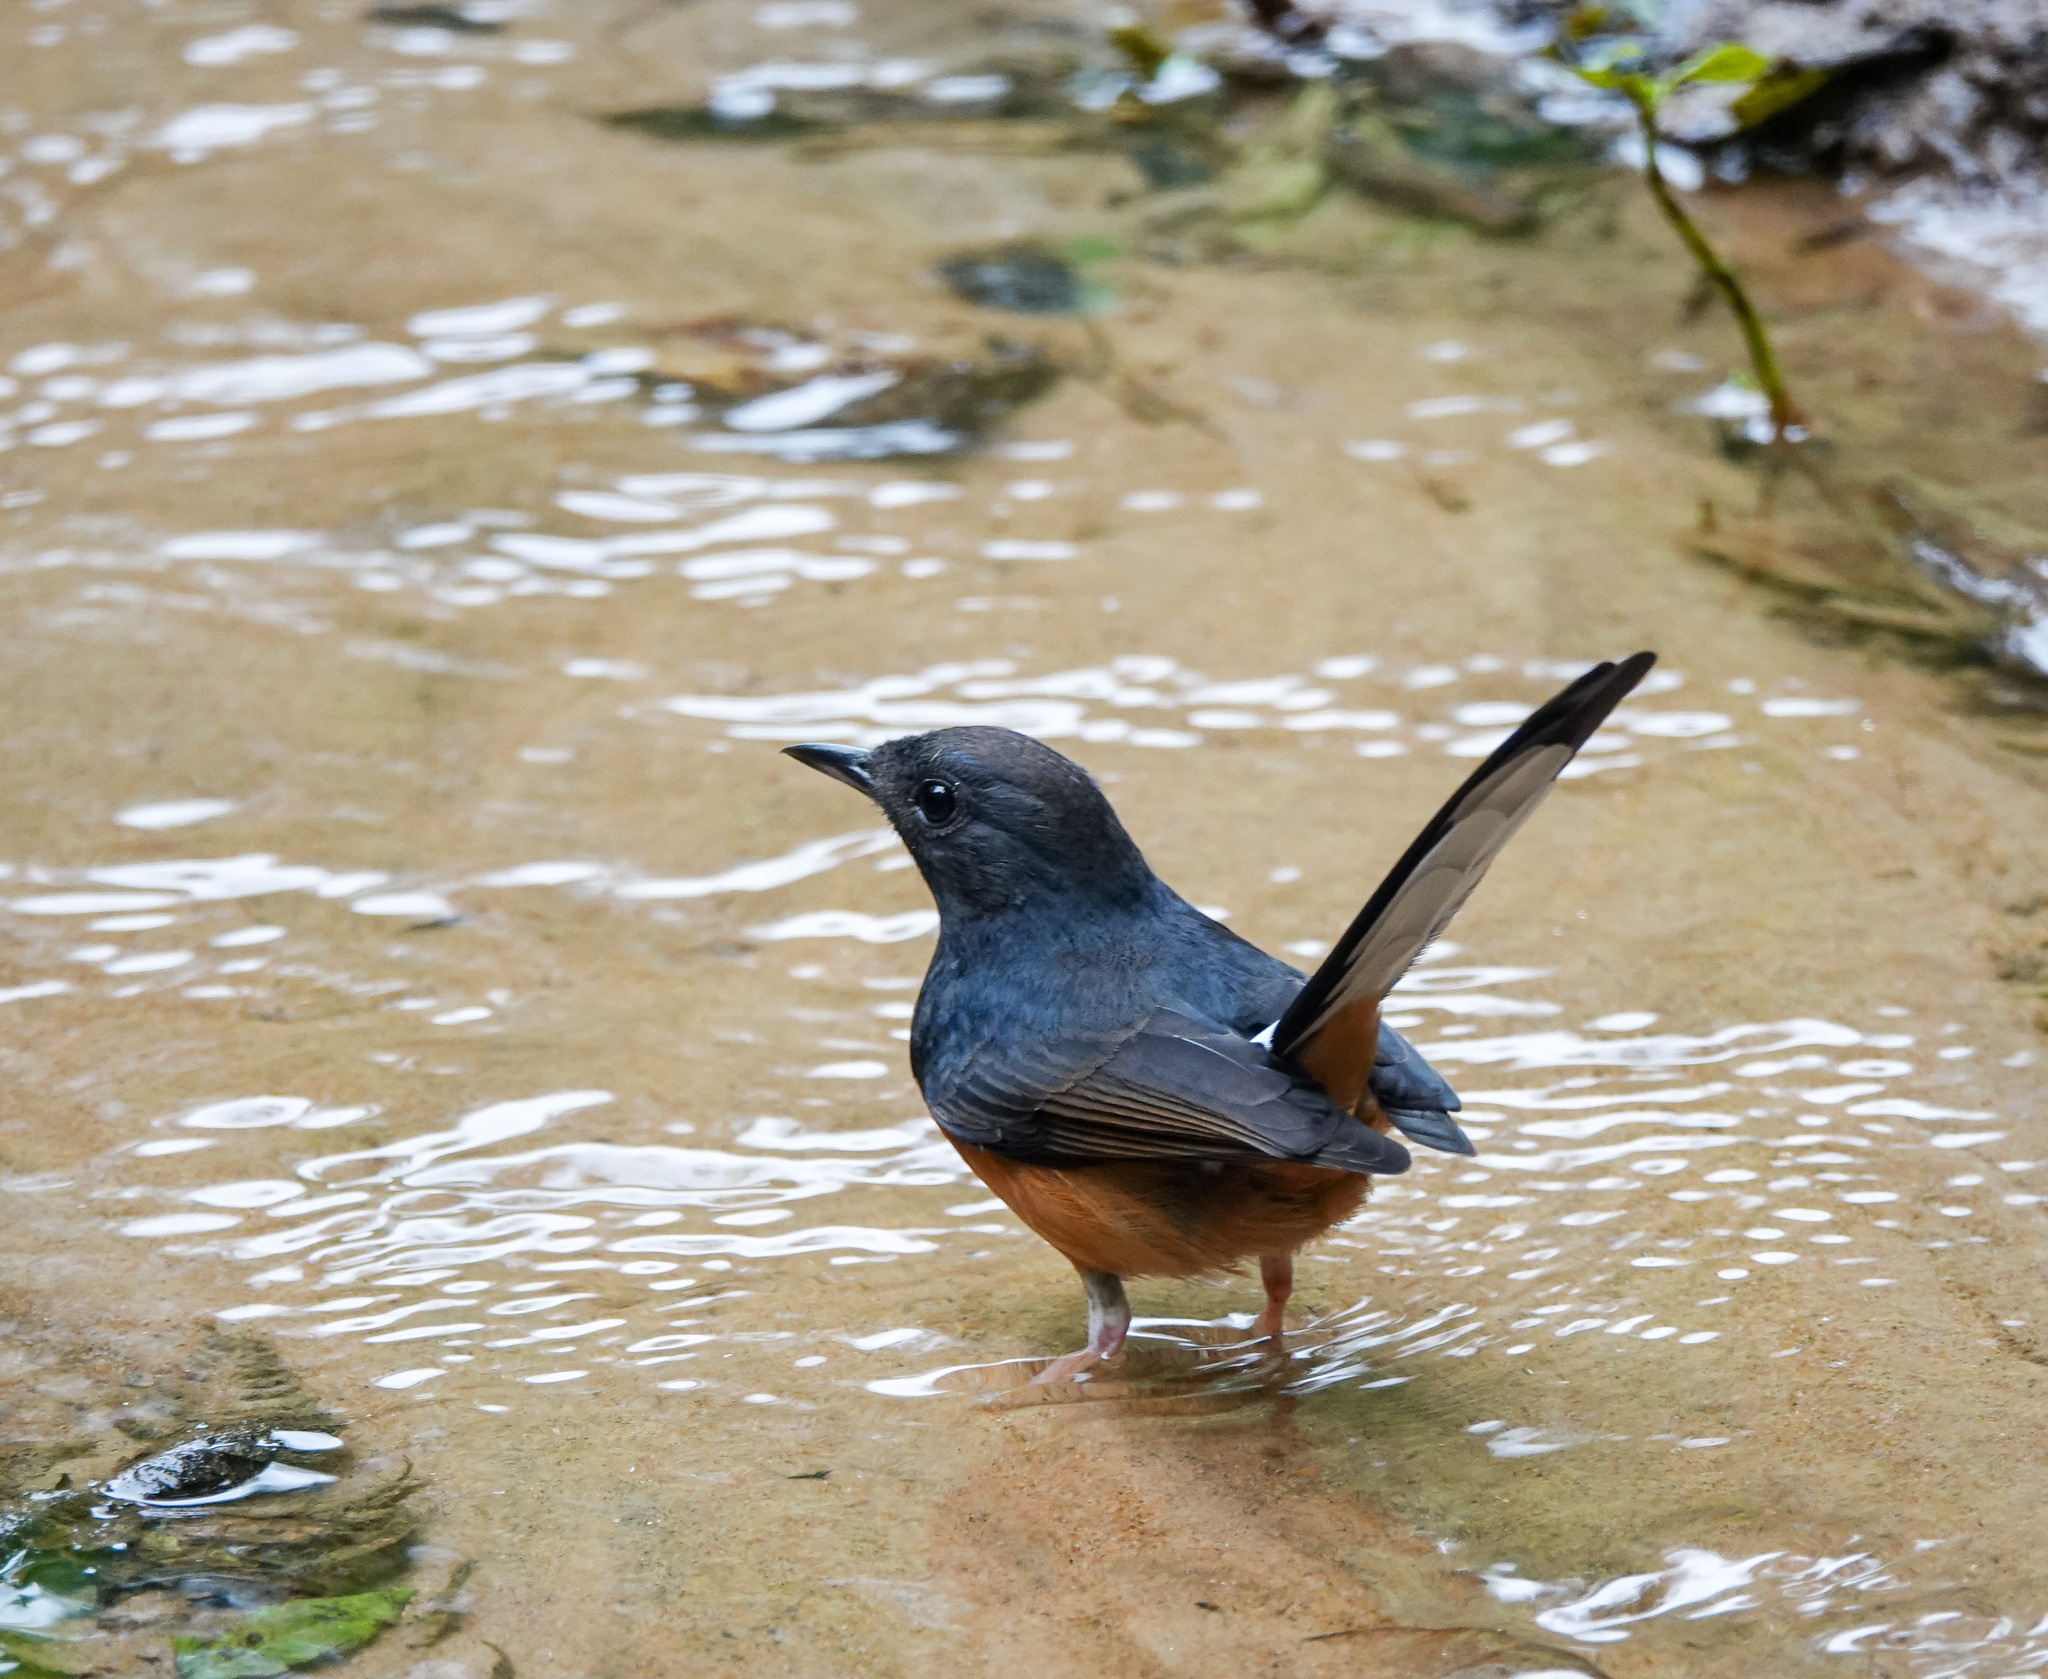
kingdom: Animalia
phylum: Chordata
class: Aves
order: Passeriformes
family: Muscicapidae
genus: Copsychus
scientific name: Copsychus malabaricus
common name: White-rumped shama
